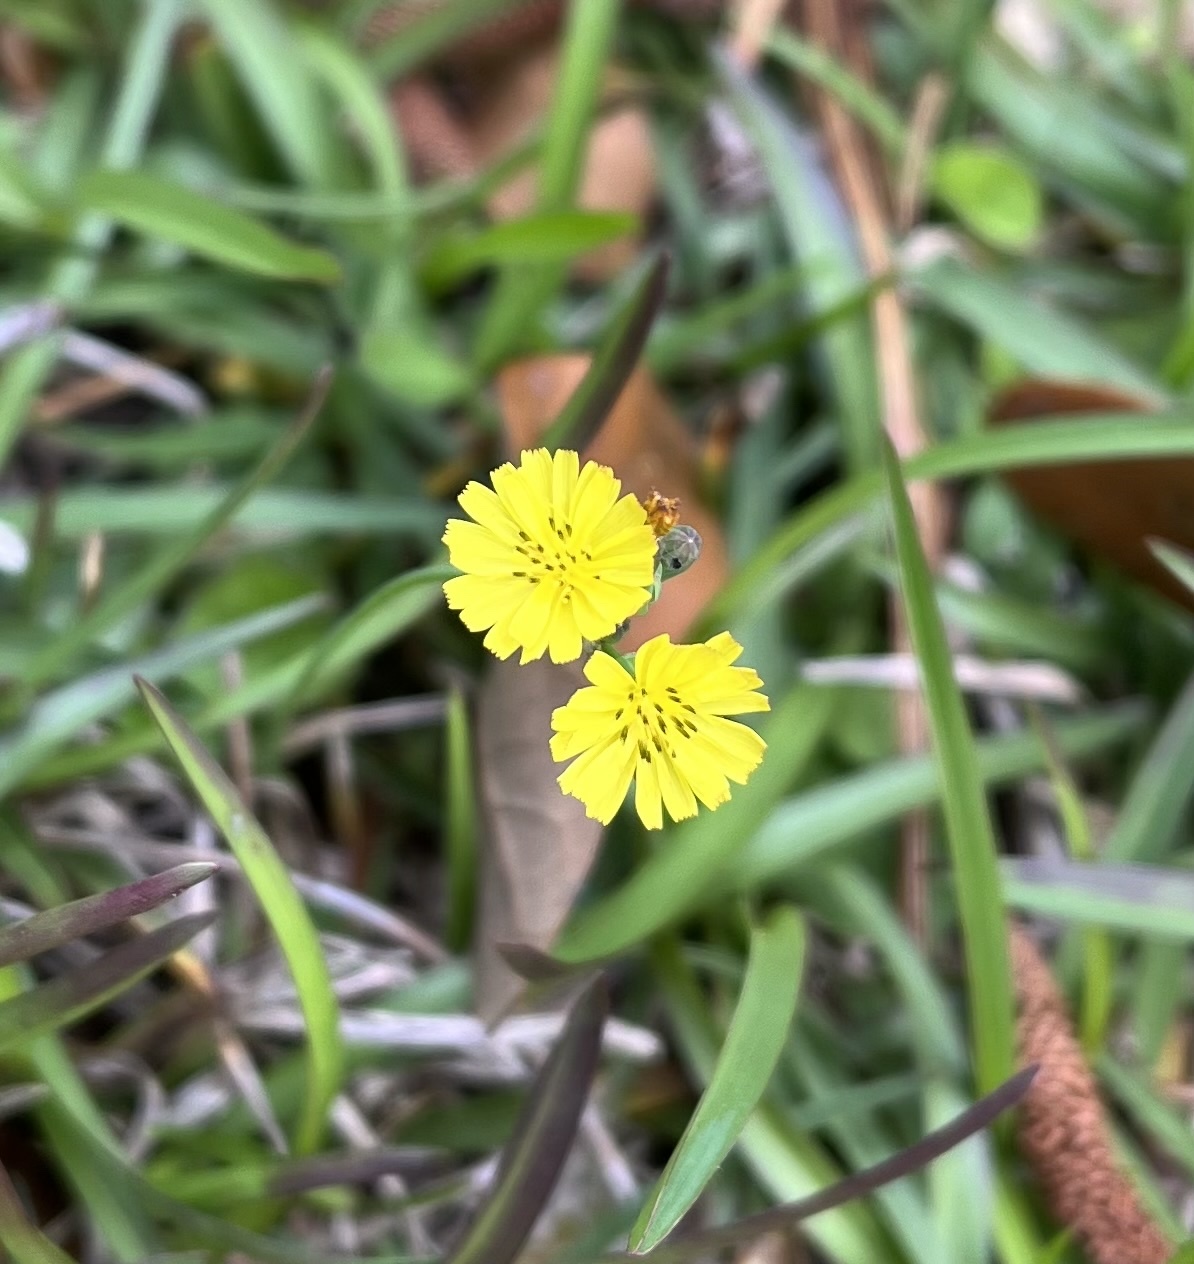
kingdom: Plantae
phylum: Tracheophyta
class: Magnoliopsida
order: Asterales
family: Asteraceae
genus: Youngia
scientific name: Youngia japonica
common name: Oriental false hawksbeard
